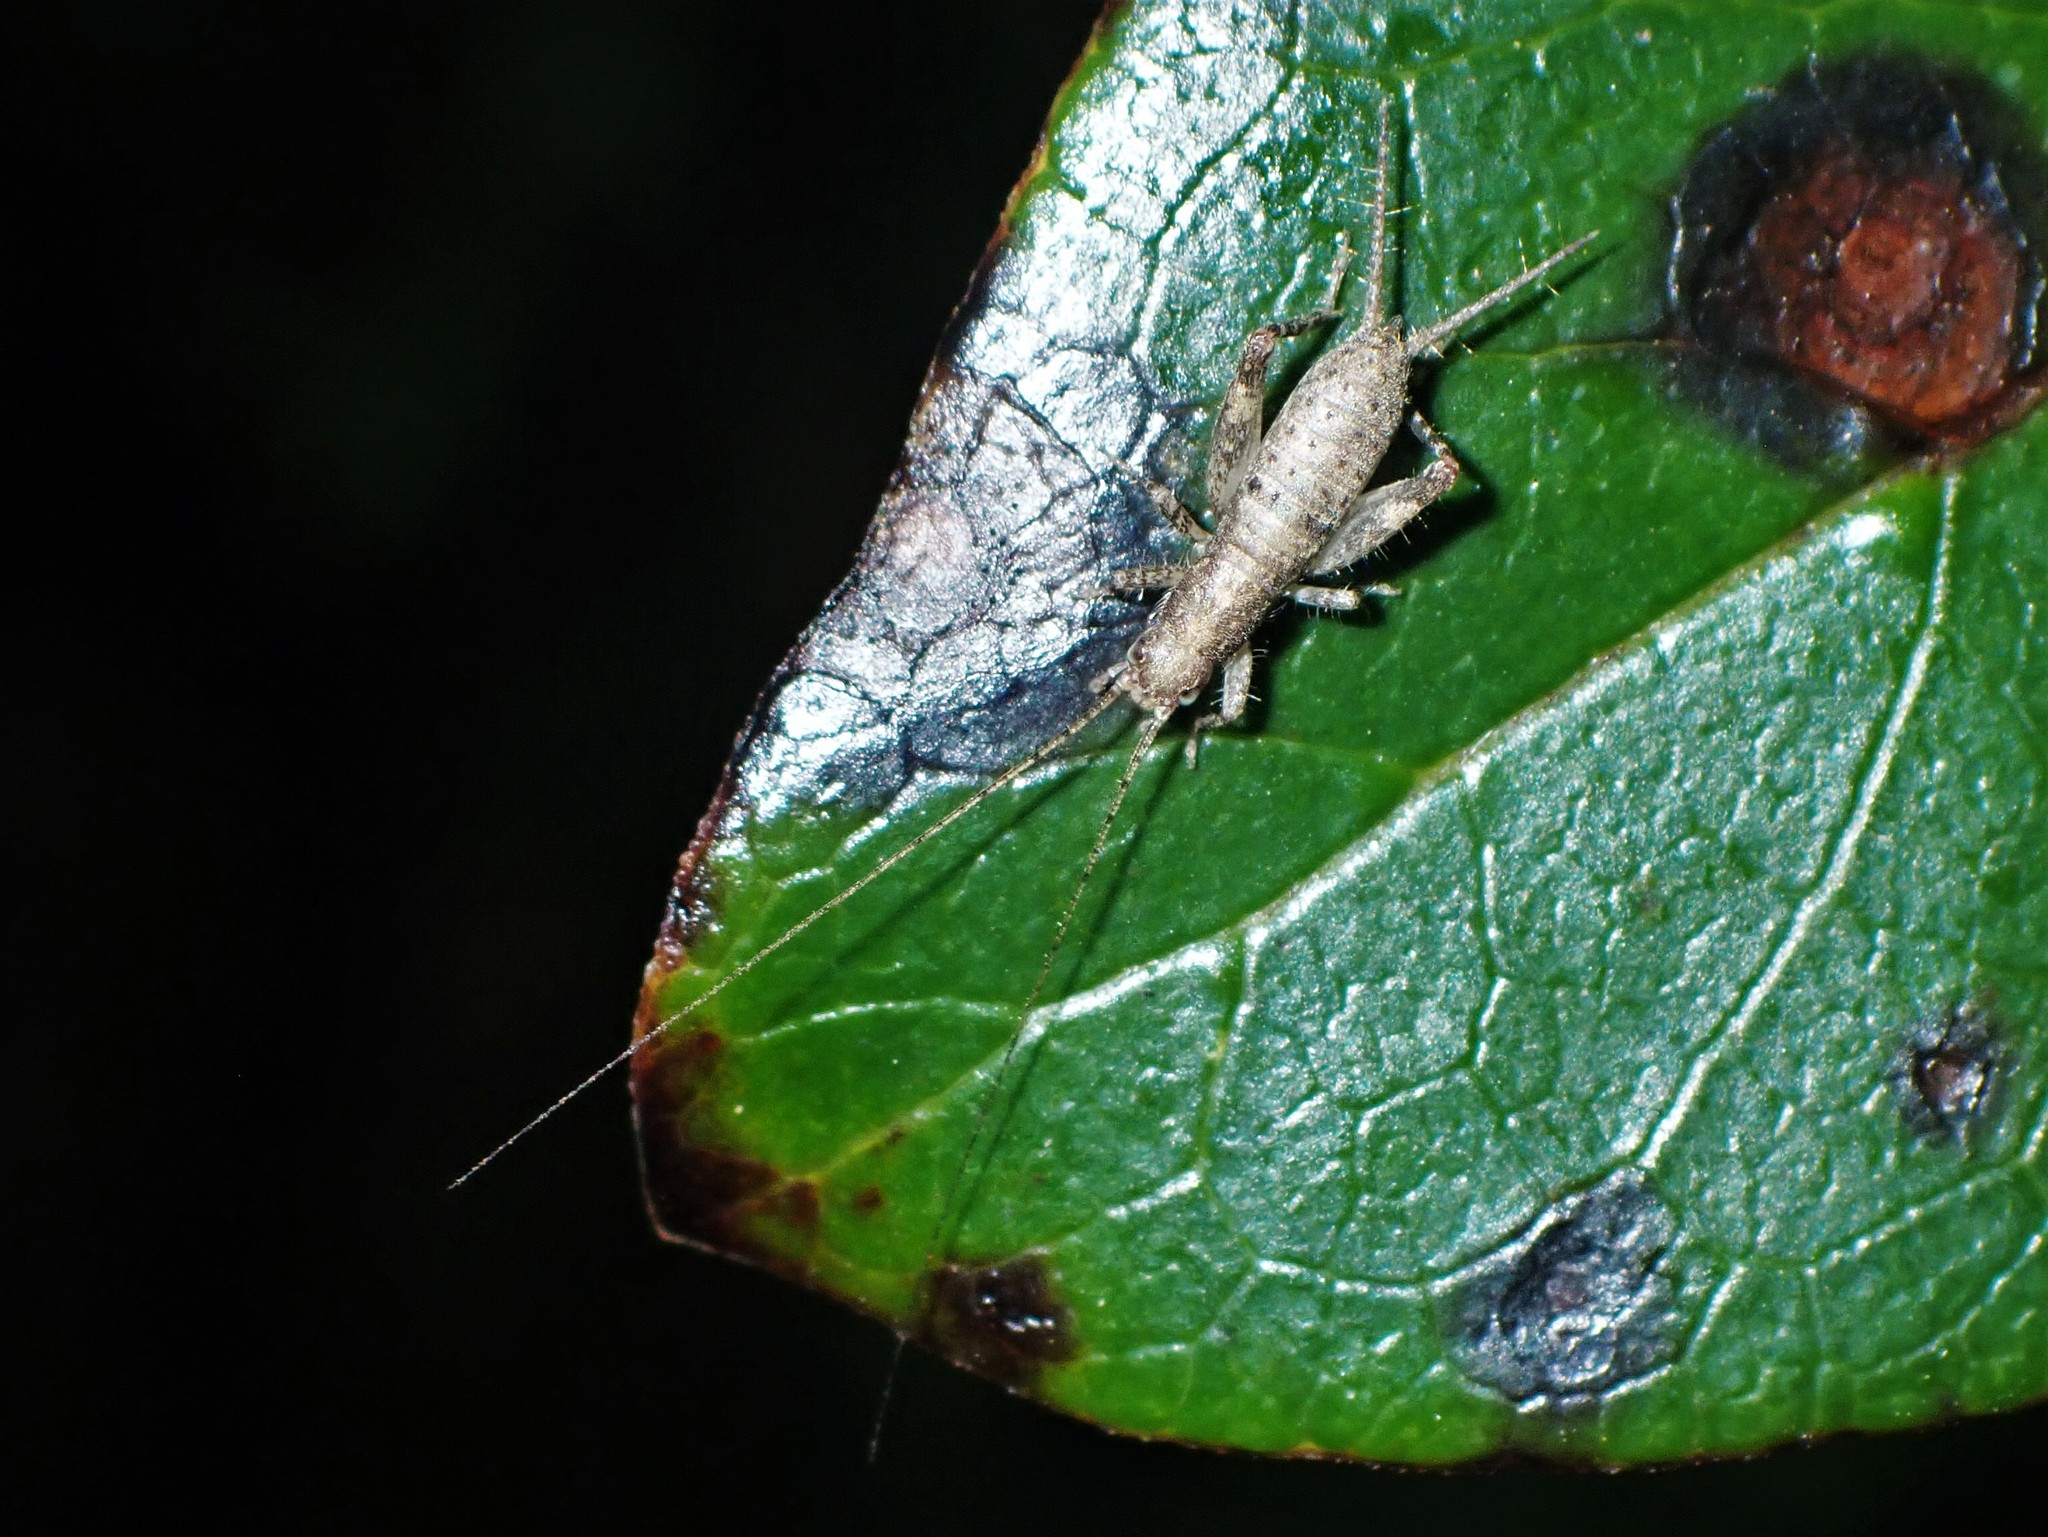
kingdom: Animalia
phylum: Arthropoda
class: Insecta
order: Orthoptera
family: Mogoplistidae
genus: Ornebius
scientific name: Ornebius aperta
